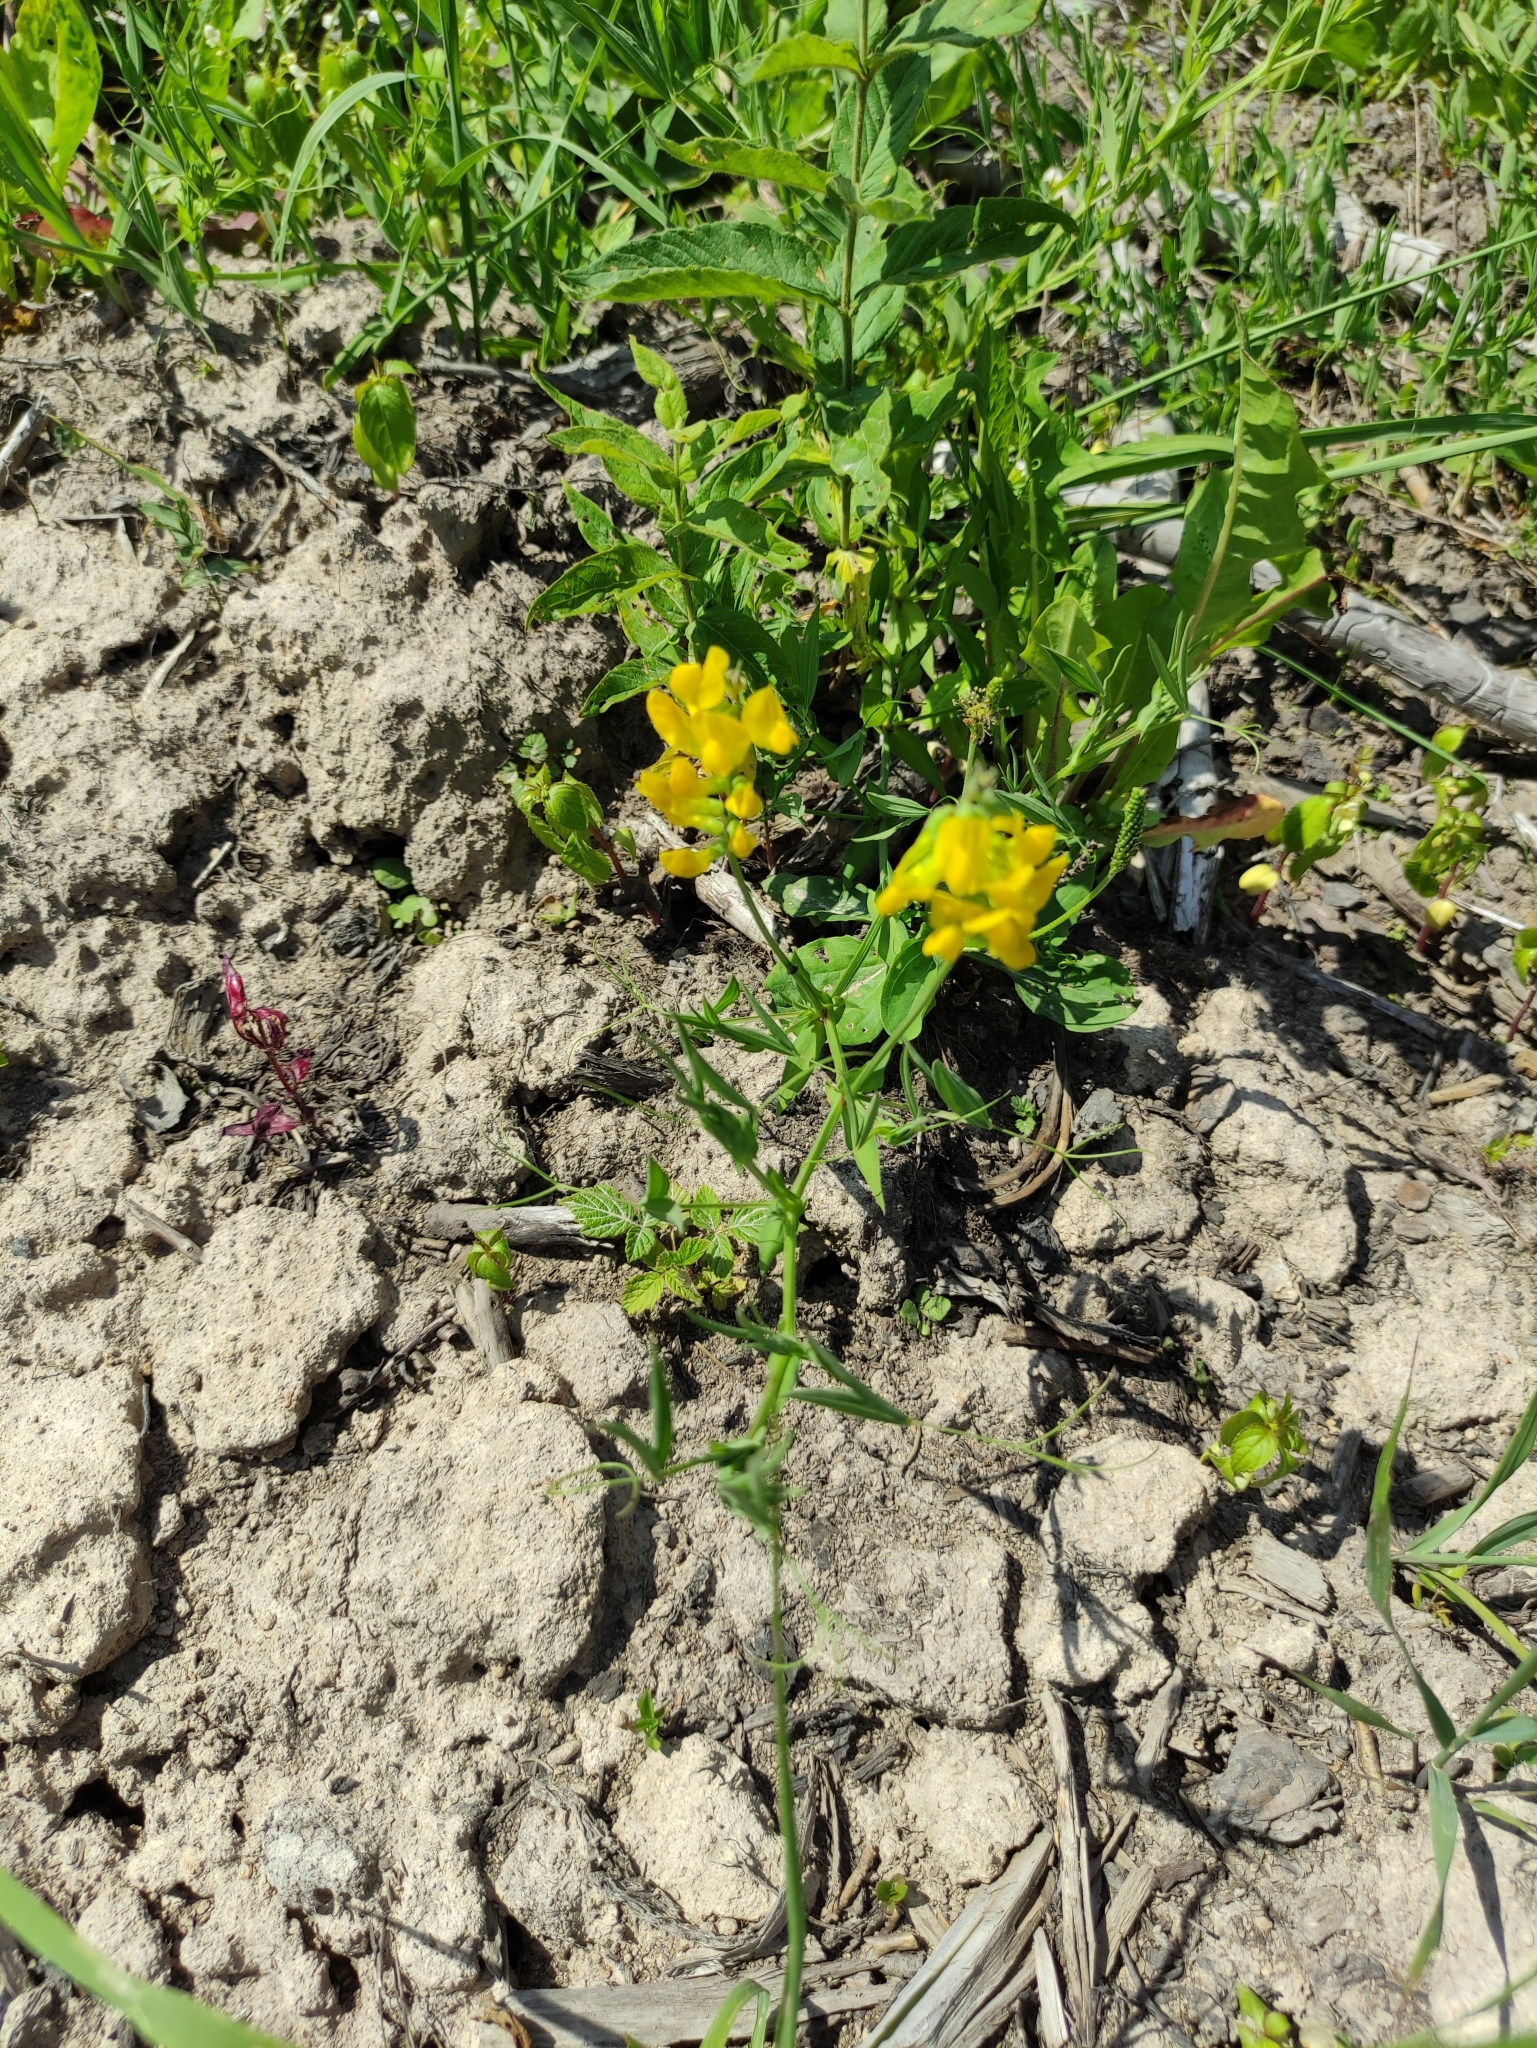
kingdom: Plantae
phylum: Tracheophyta
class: Magnoliopsida
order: Fabales
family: Fabaceae
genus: Lathyrus
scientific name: Lathyrus pratensis
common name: Meadow vetchling
